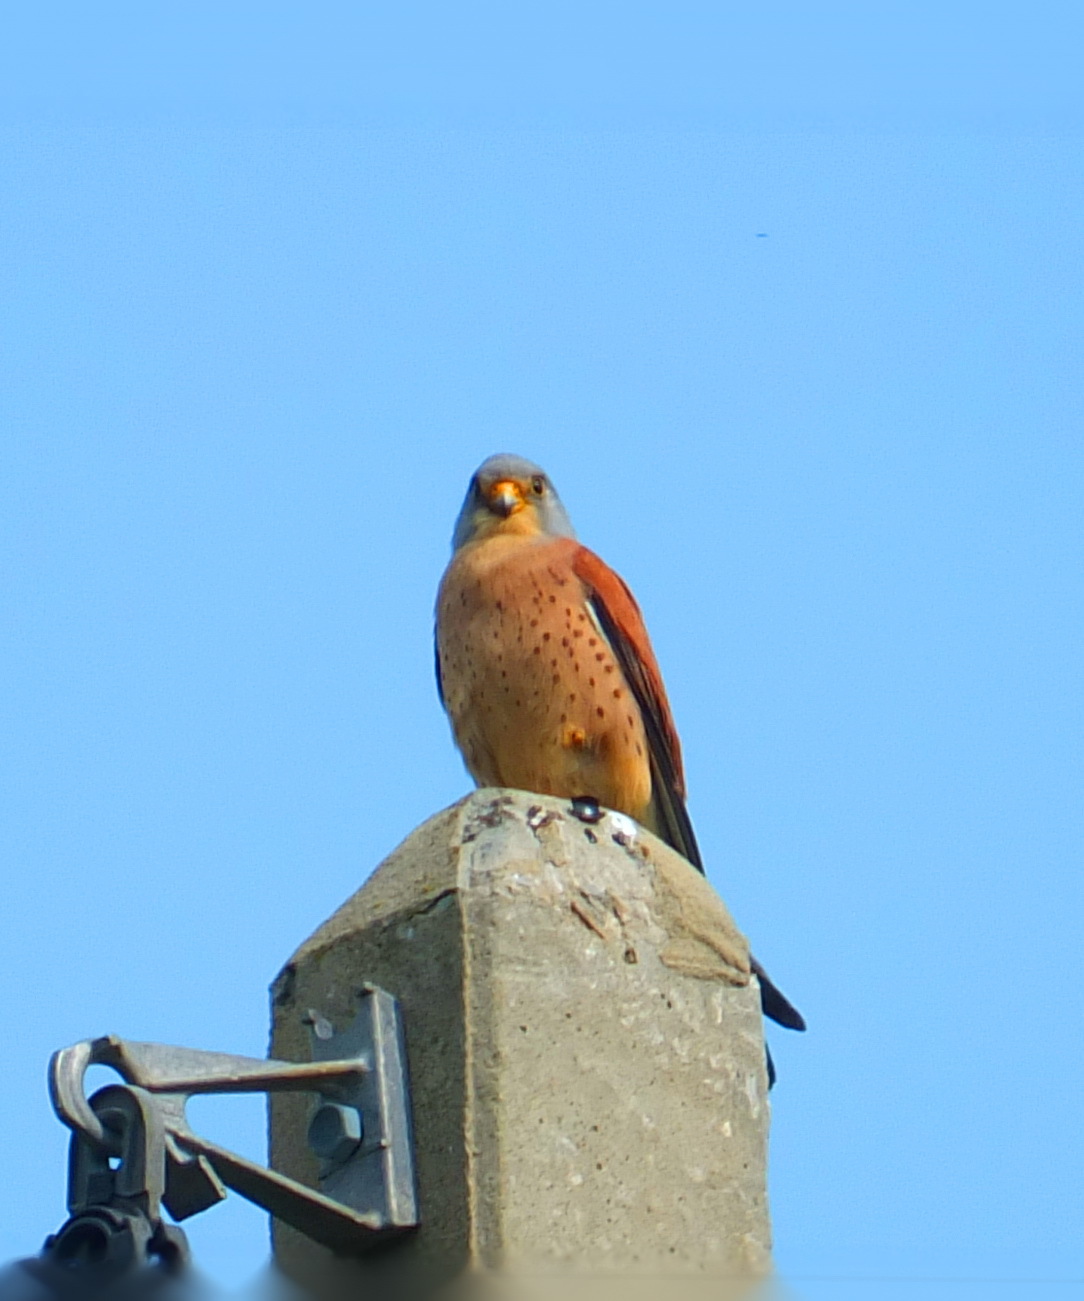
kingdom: Animalia
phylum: Chordata
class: Aves
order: Falconiformes
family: Falconidae
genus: Falco
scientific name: Falco naumanni
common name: Lesser kestrel
